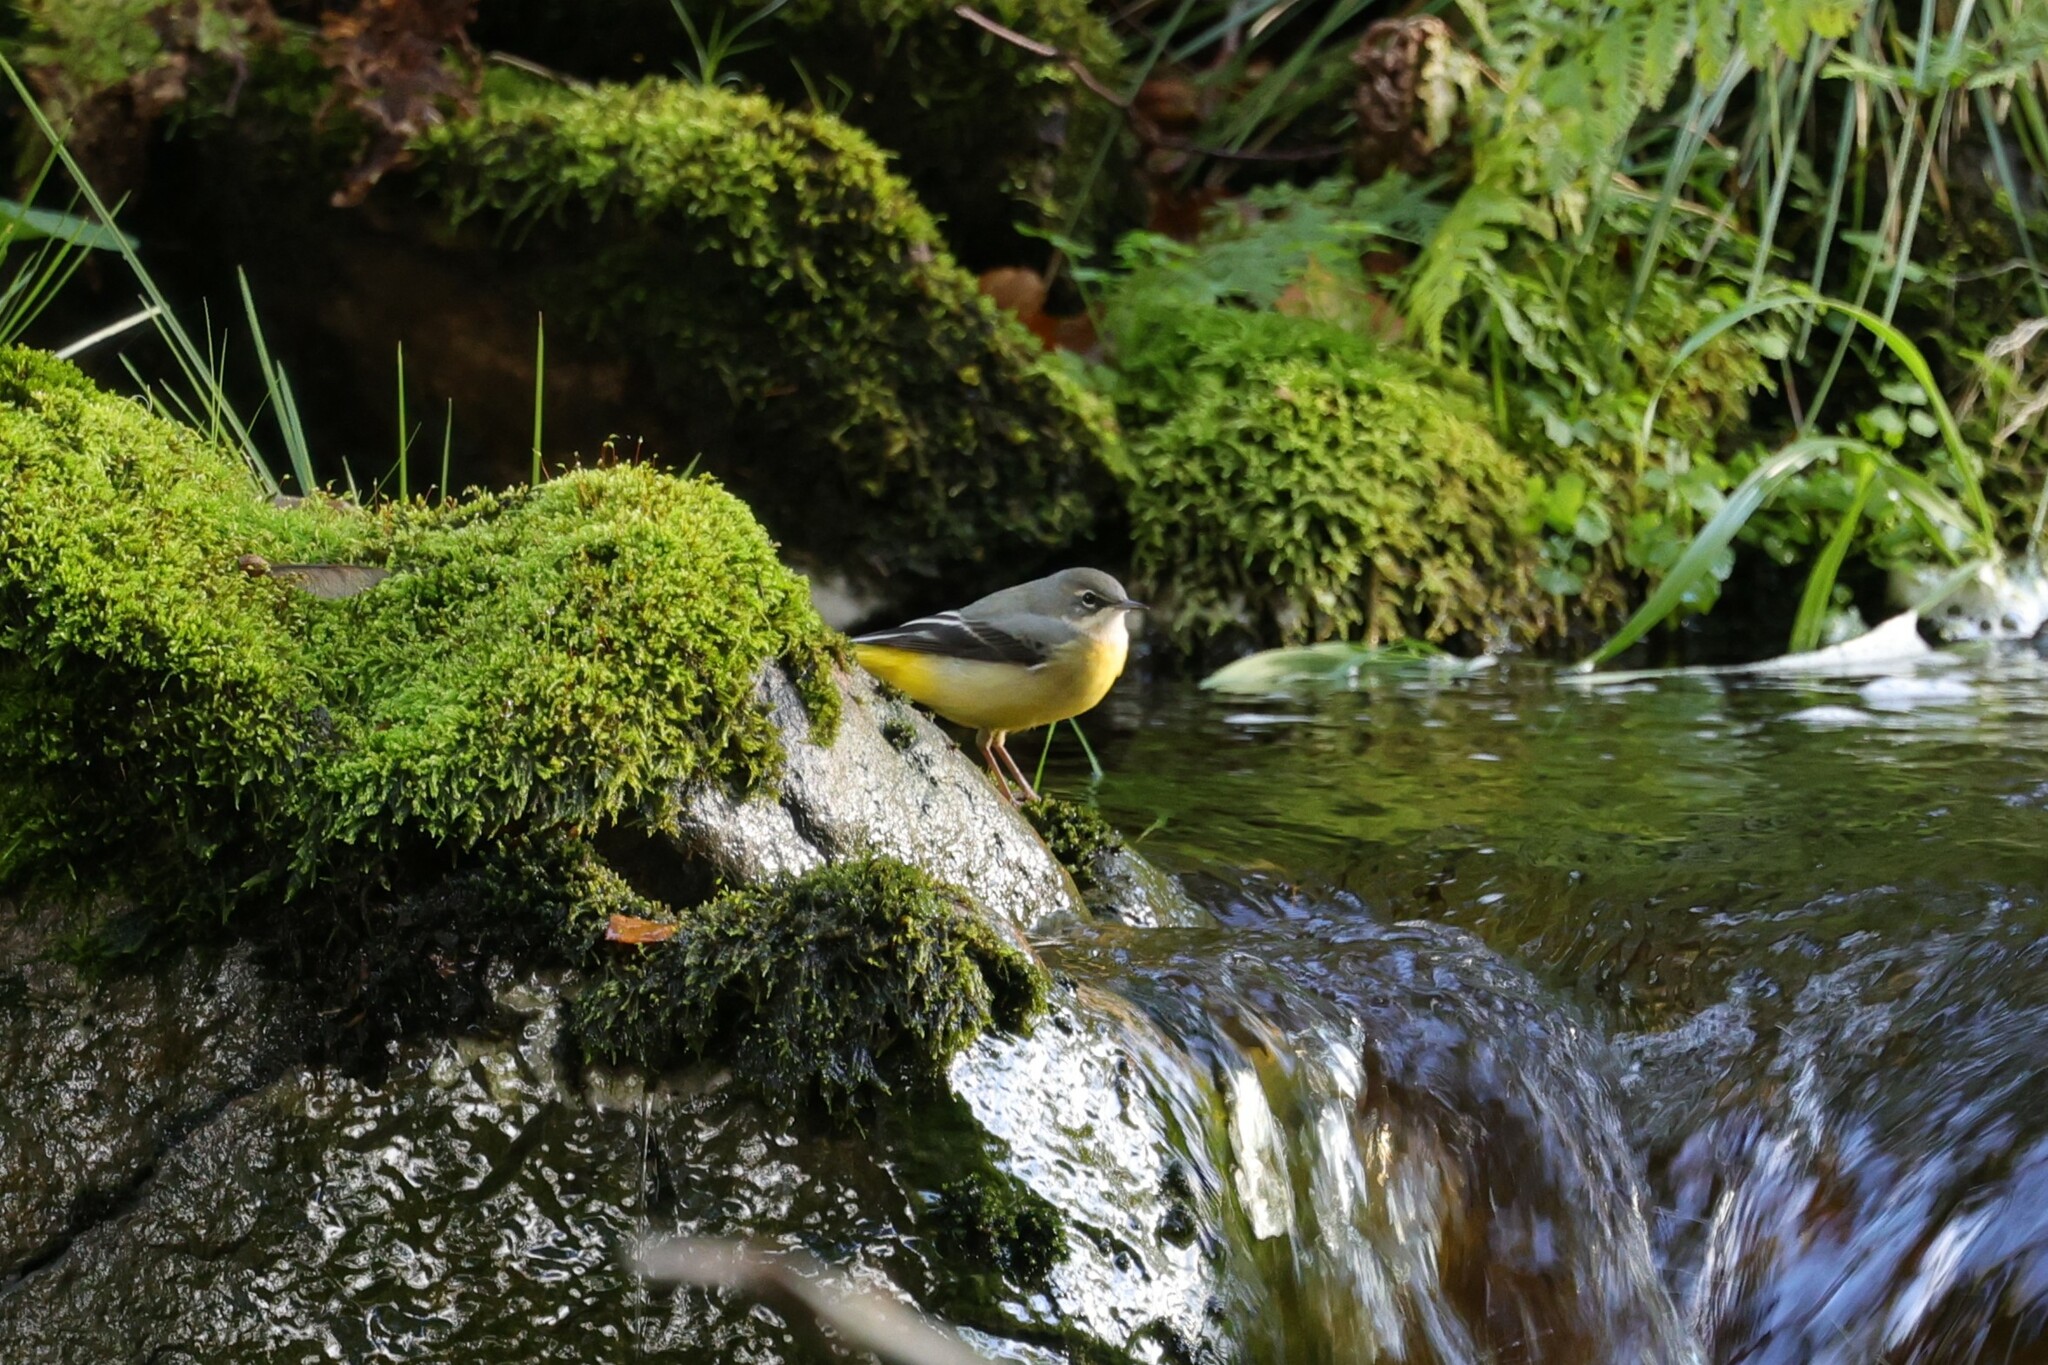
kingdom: Animalia
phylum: Chordata
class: Aves
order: Passeriformes
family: Motacillidae
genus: Motacilla
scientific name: Motacilla cinerea
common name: Grey wagtail
